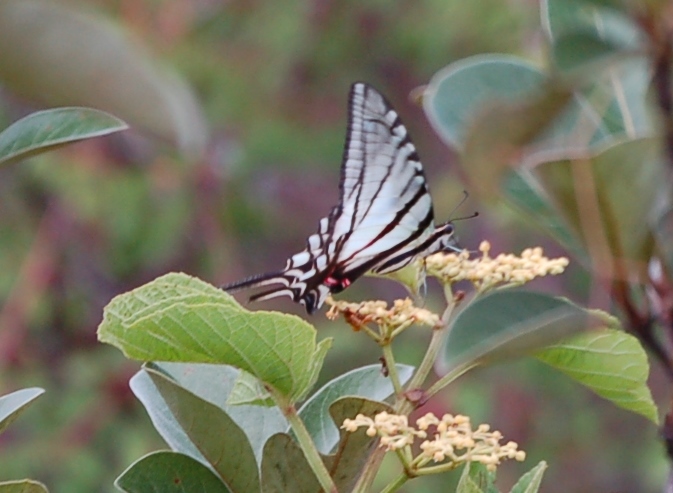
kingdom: Animalia
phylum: Arthropoda
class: Insecta
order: Lepidoptera
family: Papilionidae
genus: Protographium
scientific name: Protographium epidaus
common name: Mexican kite swallowtail
